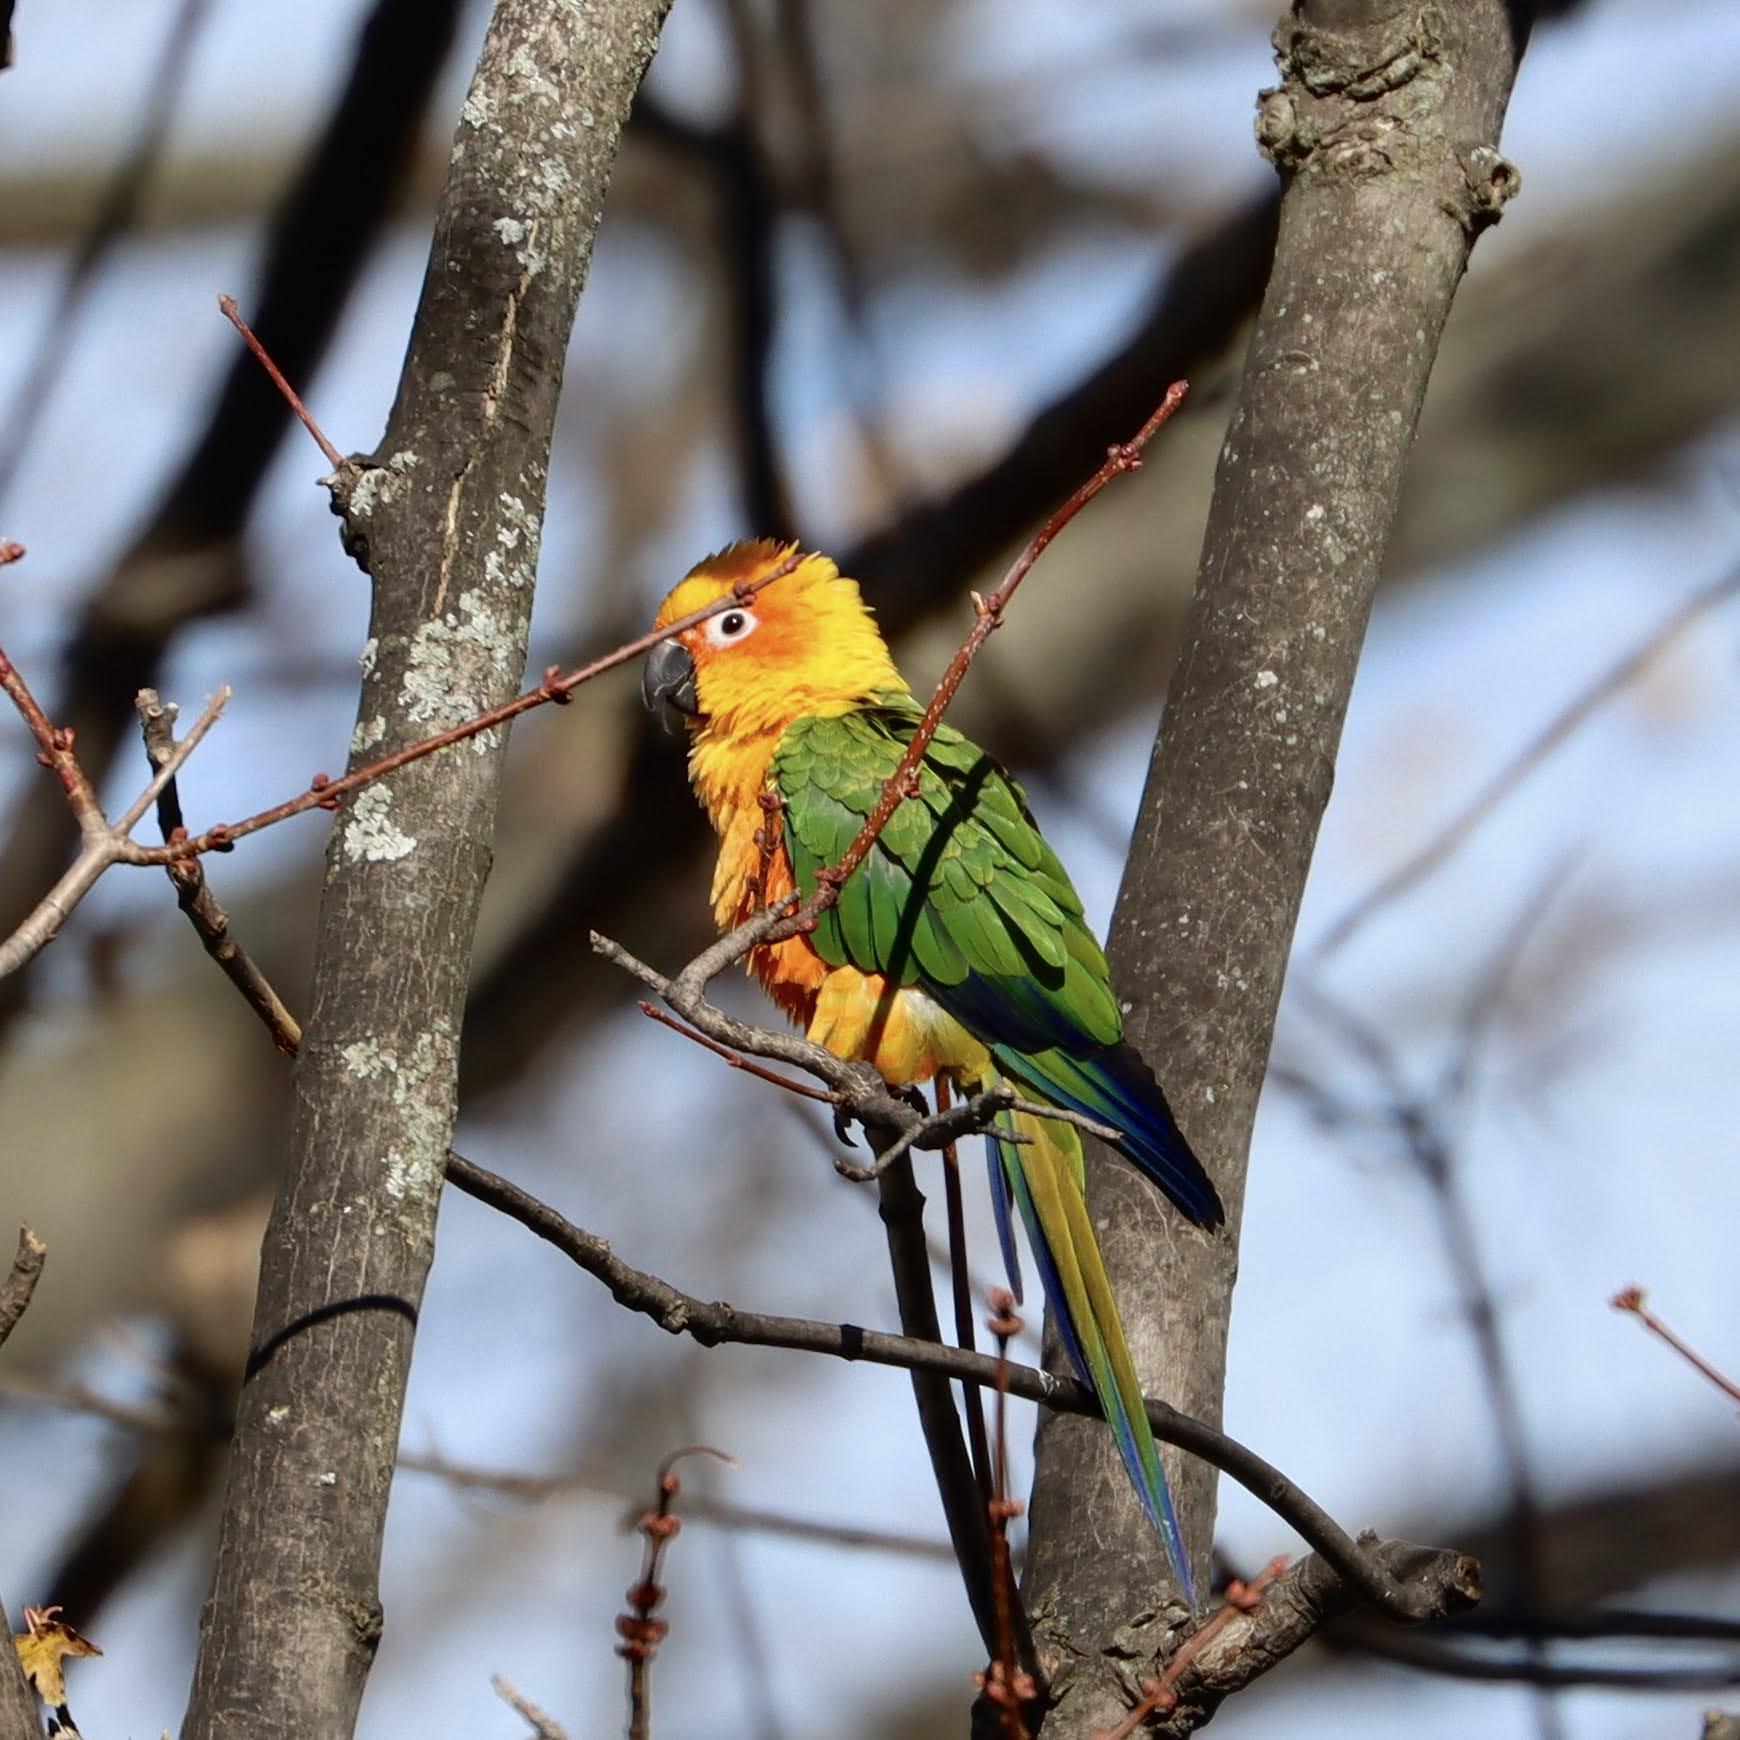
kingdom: Animalia
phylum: Chordata
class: Aves
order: Psittaciformes
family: Psittacidae
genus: Aratinga
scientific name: Aratinga jandaya
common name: Jandaya parakeet
